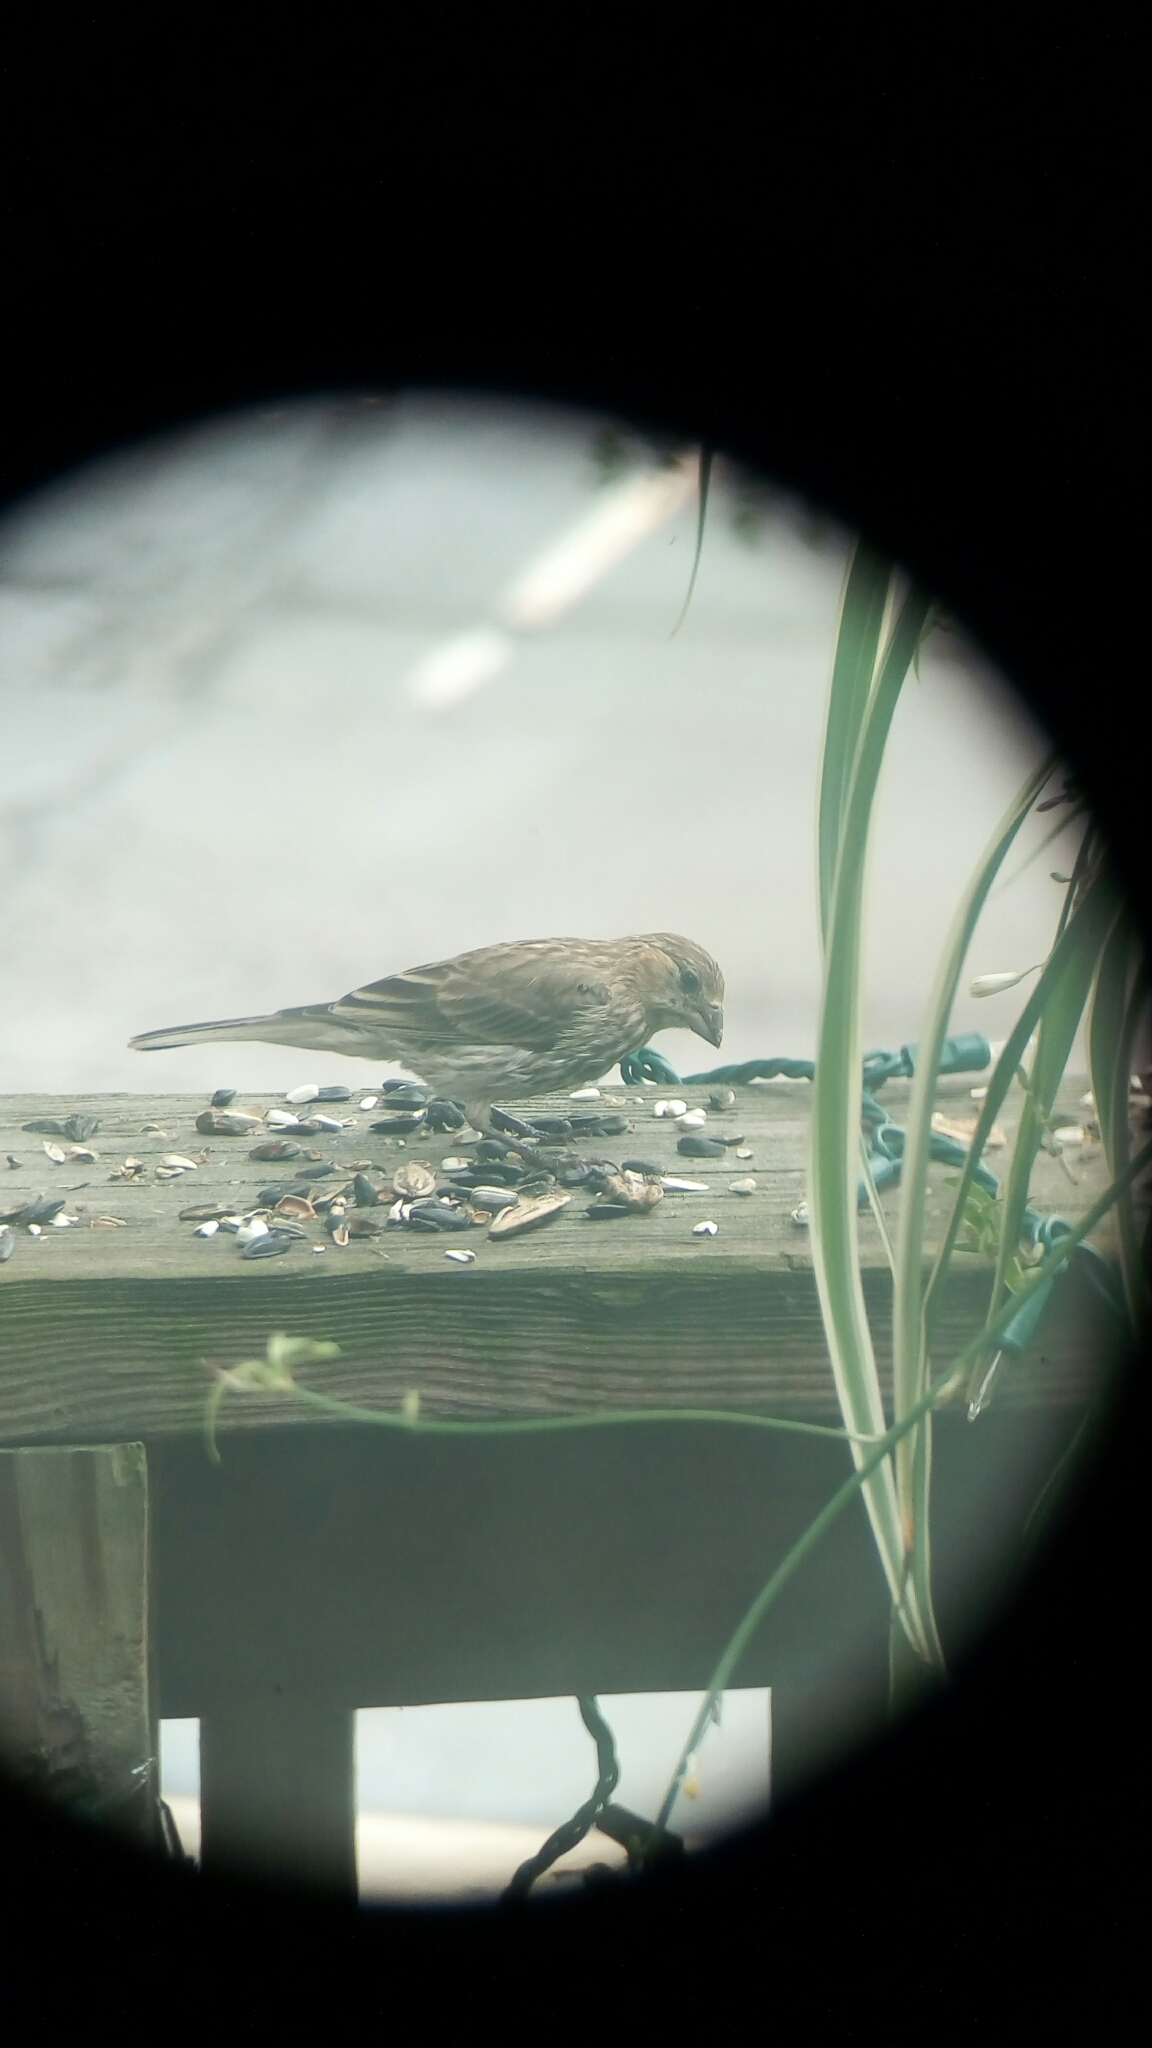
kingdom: Animalia
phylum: Chordata
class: Aves
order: Passeriformes
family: Fringillidae
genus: Haemorhous
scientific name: Haemorhous mexicanus
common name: House finch
